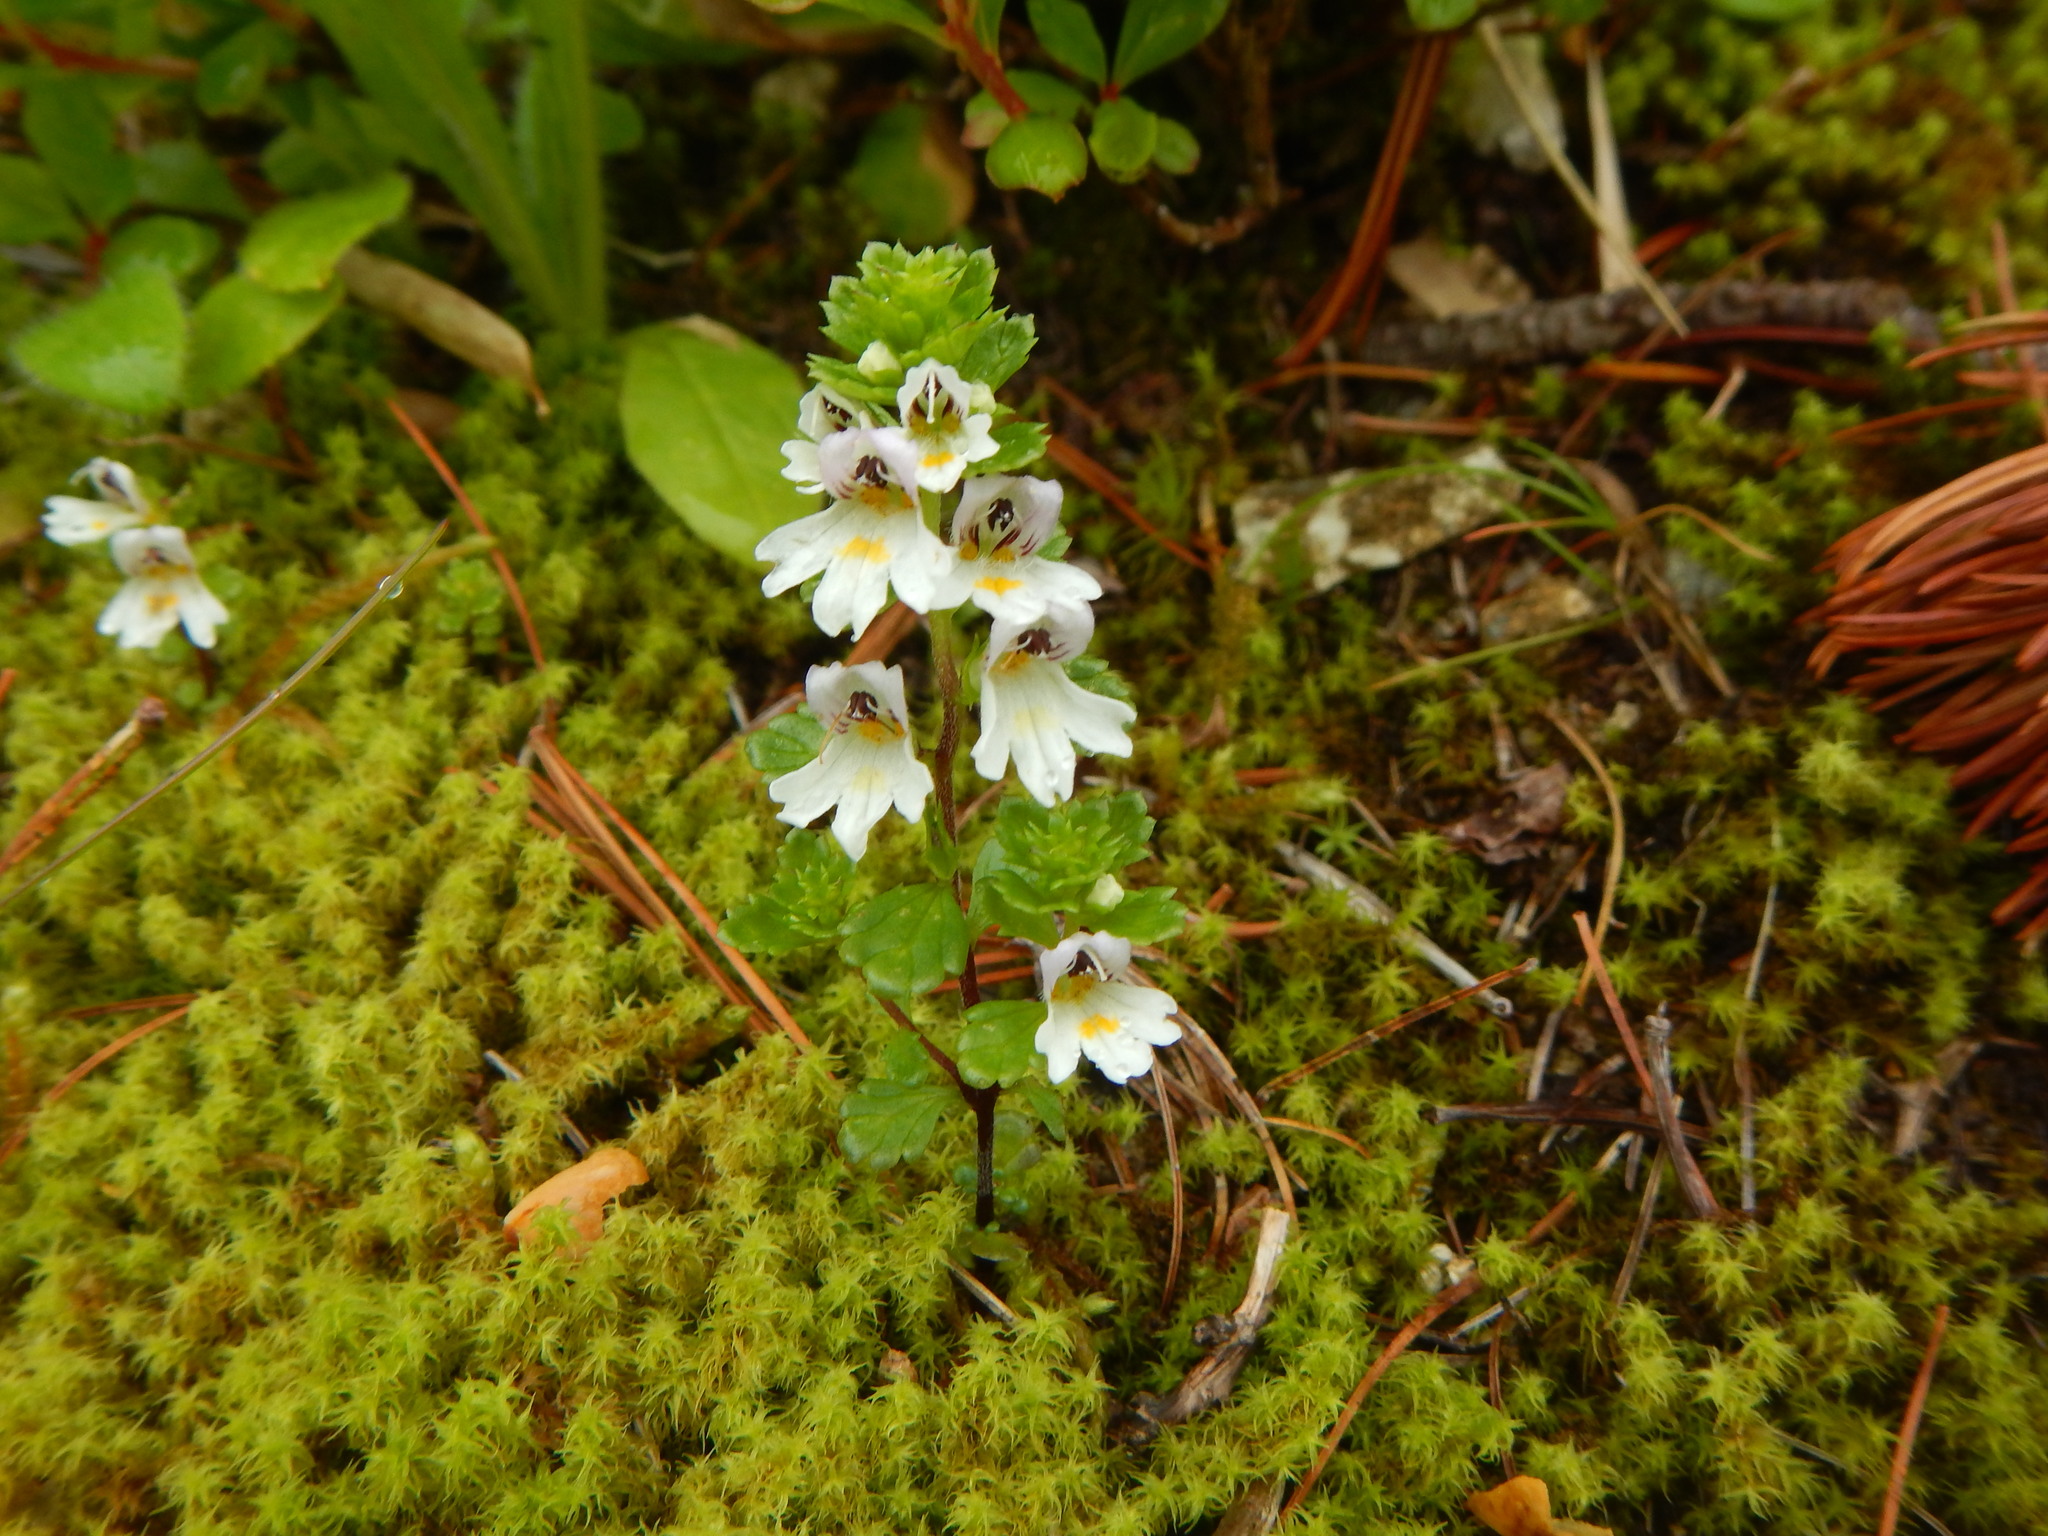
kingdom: Plantae
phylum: Tracheophyta
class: Magnoliopsida
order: Lamiales
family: Orobanchaceae
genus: Euphrasia
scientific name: Euphrasia insignis
